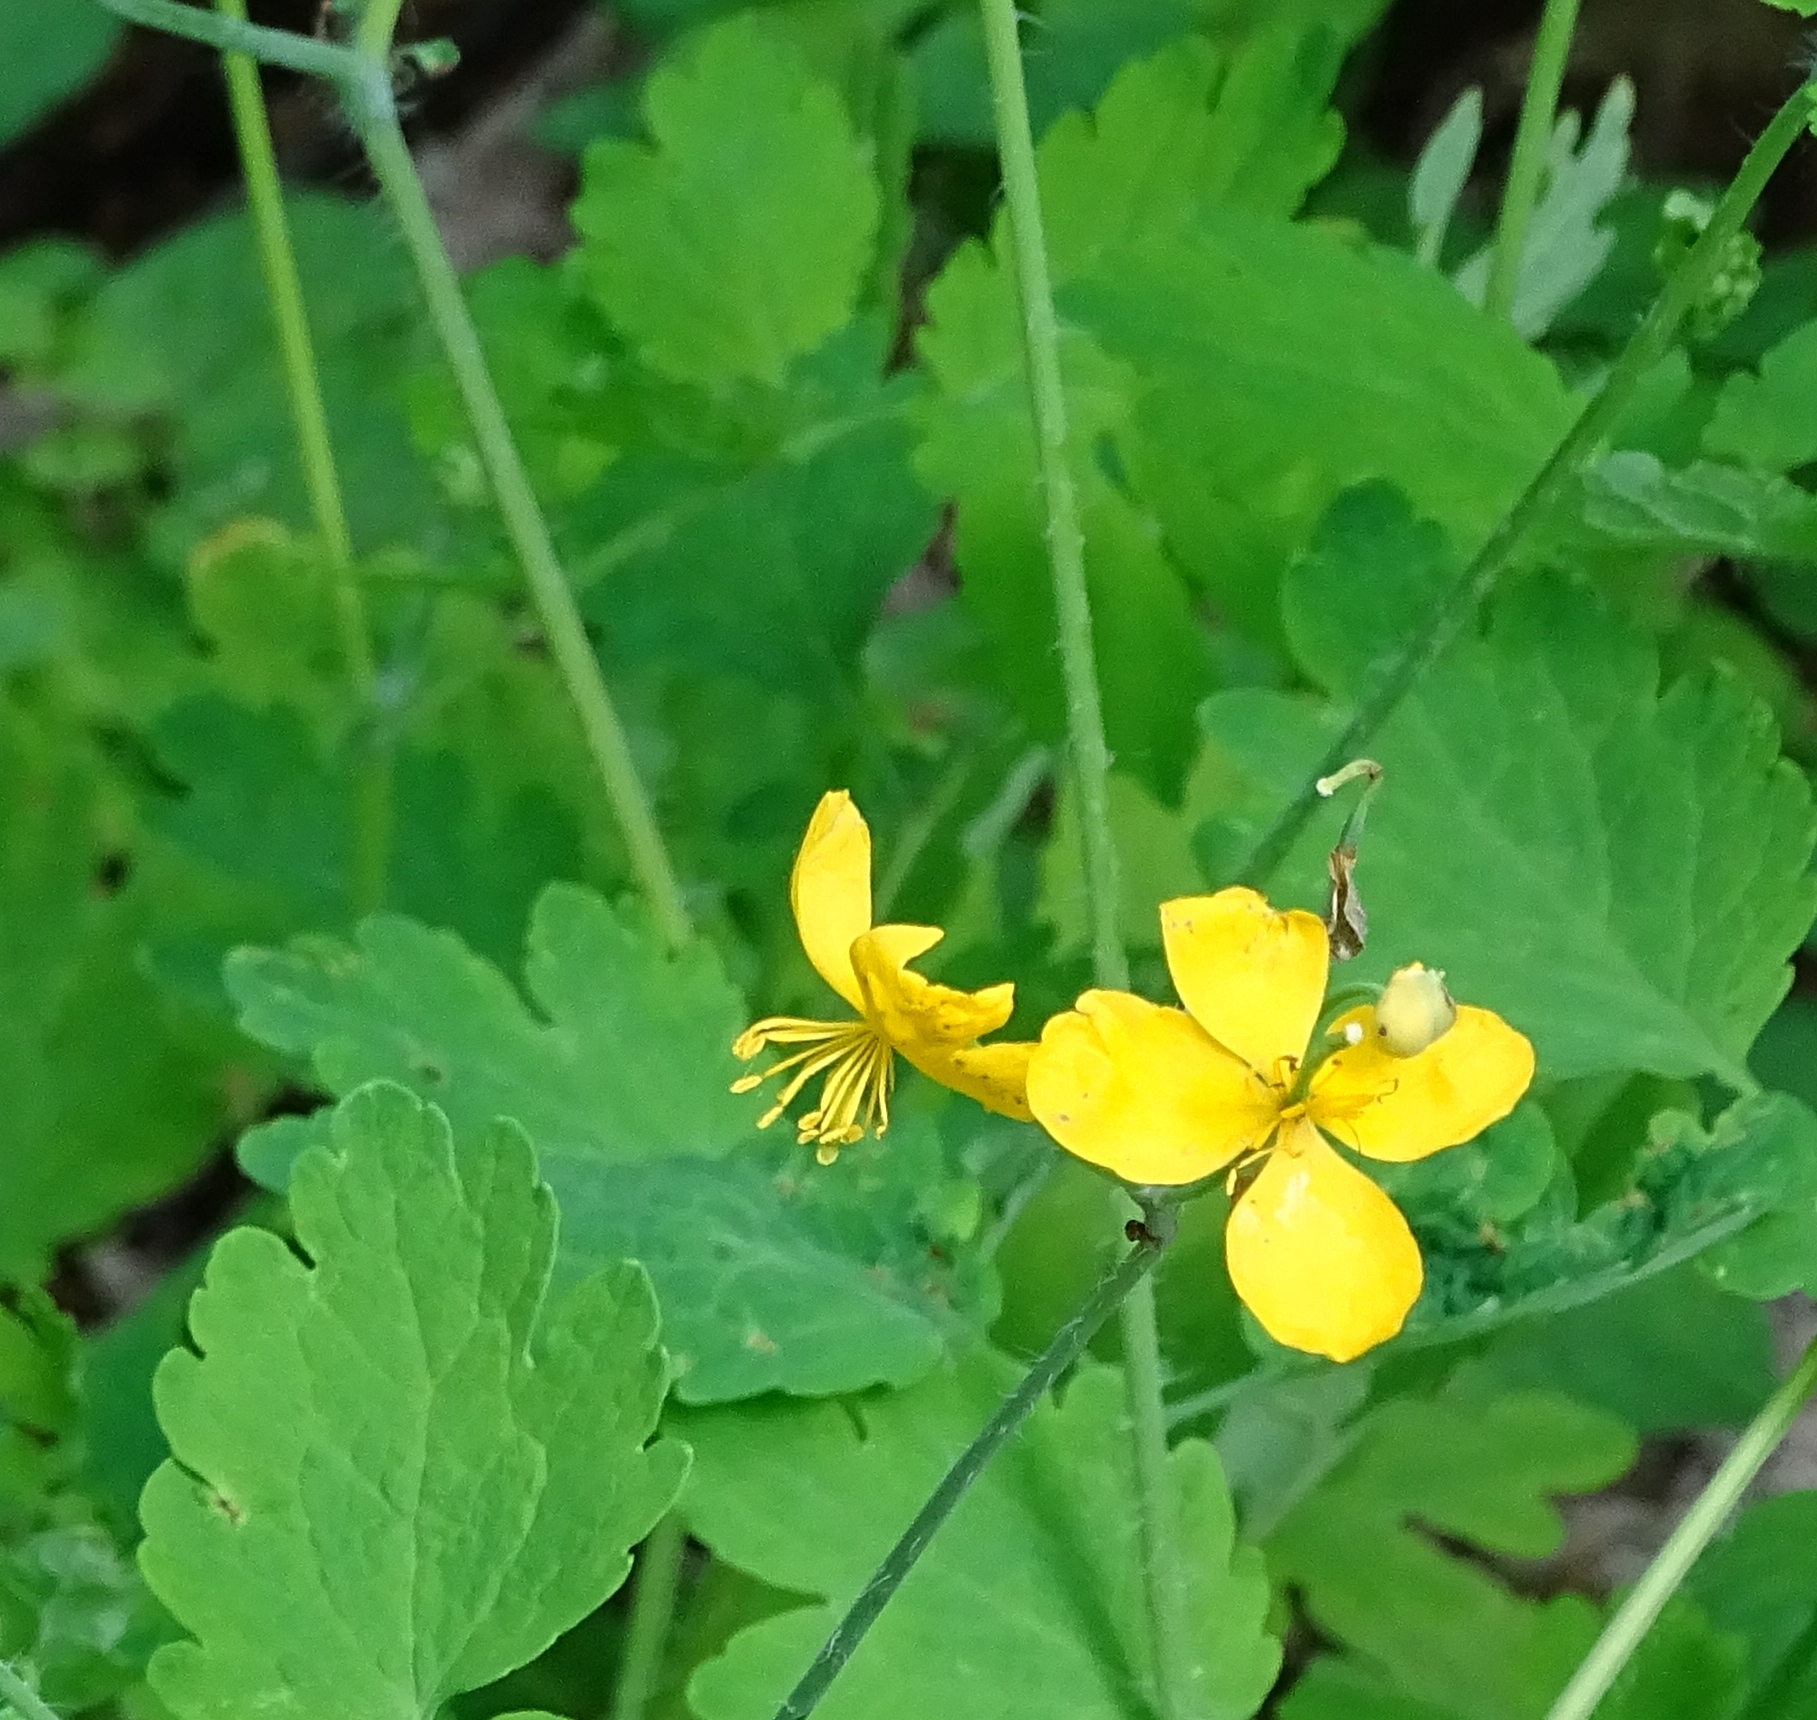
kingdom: Plantae
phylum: Tracheophyta
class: Magnoliopsida
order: Ranunculales
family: Papaveraceae
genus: Chelidonium
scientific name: Chelidonium majus
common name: Greater celandine
